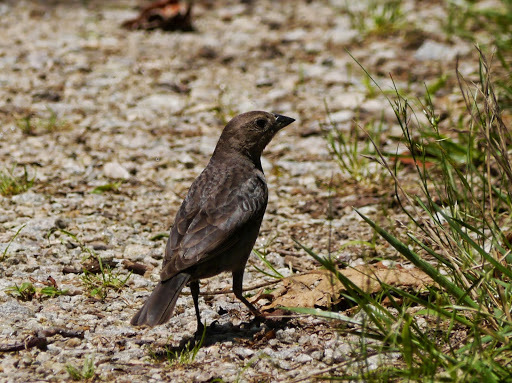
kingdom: Animalia
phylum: Chordata
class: Aves
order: Passeriformes
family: Icteridae
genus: Molothrus
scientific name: Molothrus ater
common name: Brown-headed cowbird
